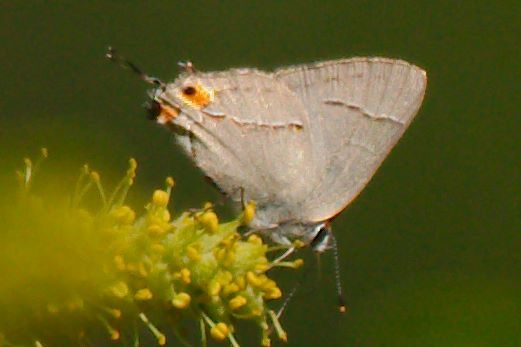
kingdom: Animalia
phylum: Arthropoda
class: Insecta
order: Lepidoptera
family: Lycaenidae
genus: Strymon
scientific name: Strymon melinus
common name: Gray hairstreak
